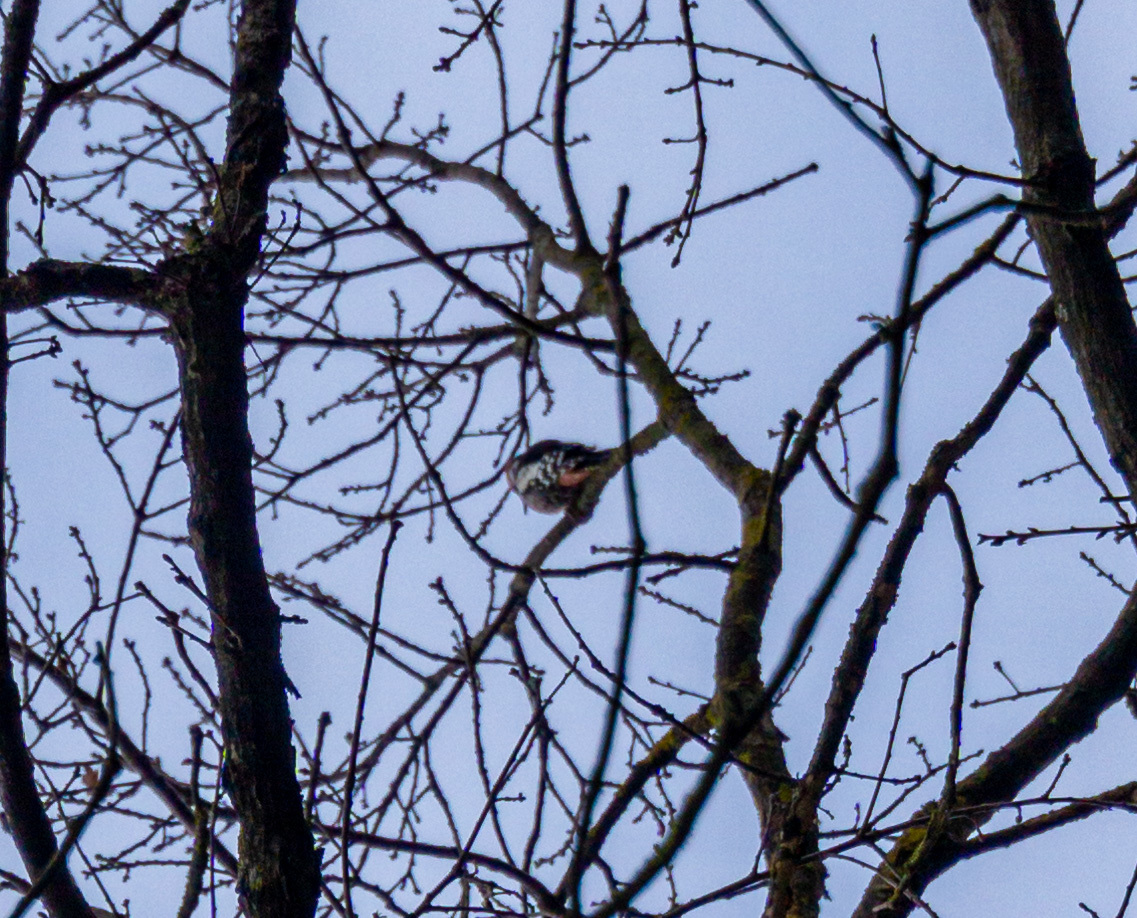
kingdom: Animalia
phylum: Chordata
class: Aves
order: Piciformes
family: Picidae
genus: Dendrocoptes
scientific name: Dendrocoptes medius
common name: Middle spotted woodpecker
